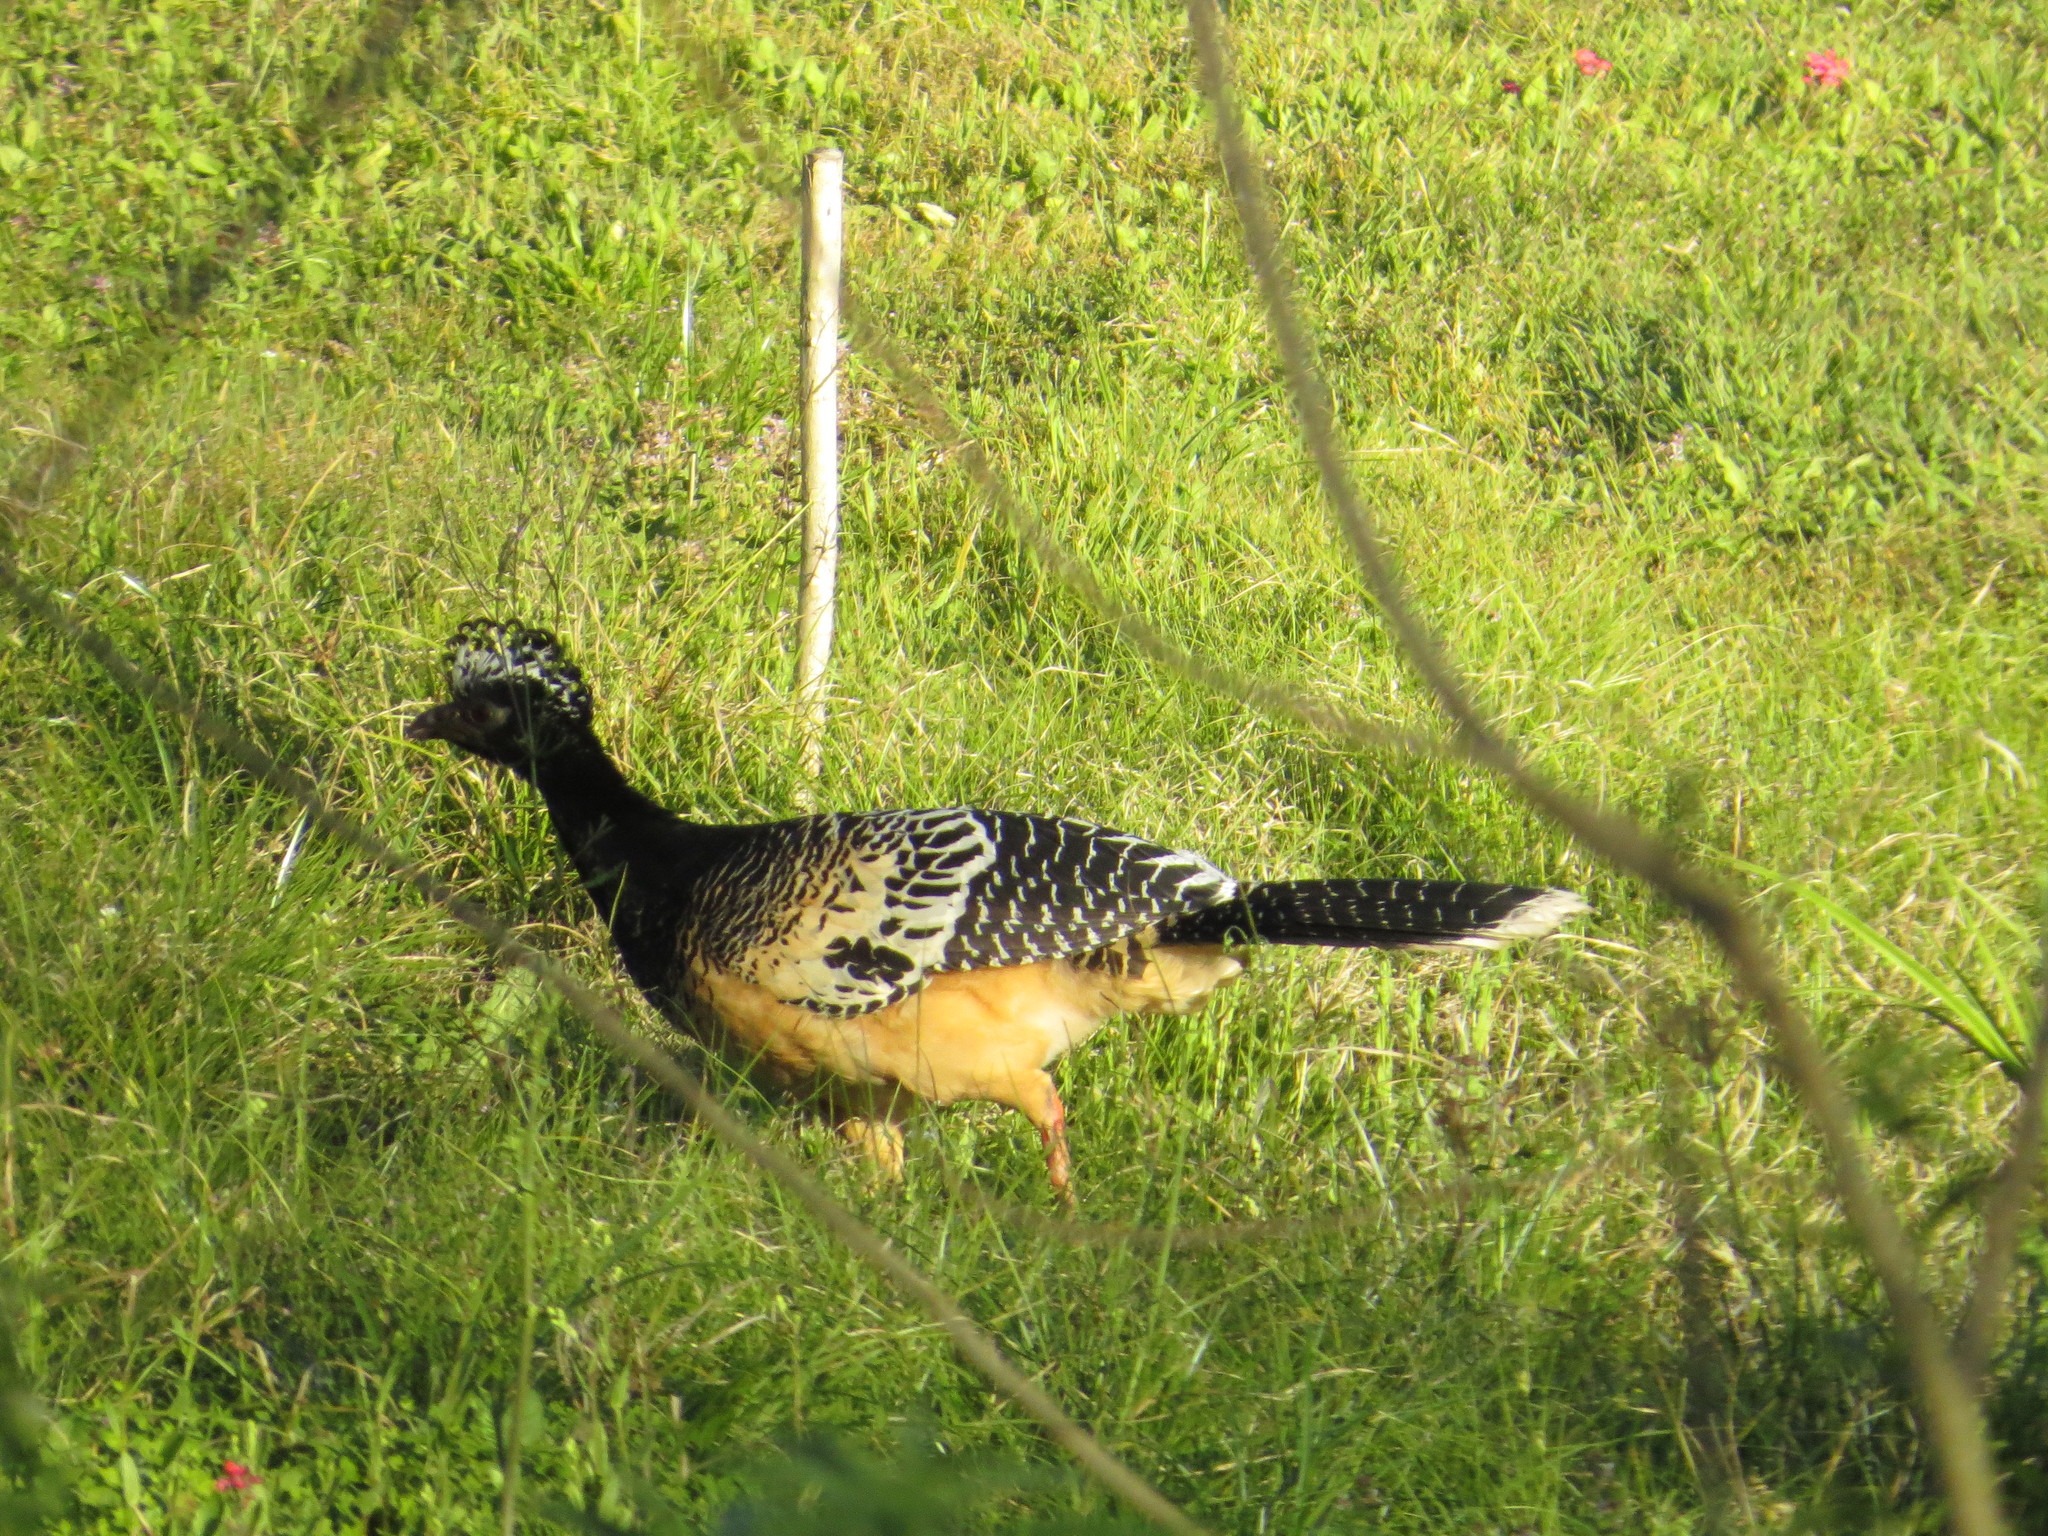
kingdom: Animalia
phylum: Chordata
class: Aves
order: Galliformes
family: Cracidae
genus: Crax
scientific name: Crax fasciolata
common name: Bare-faced curassow
